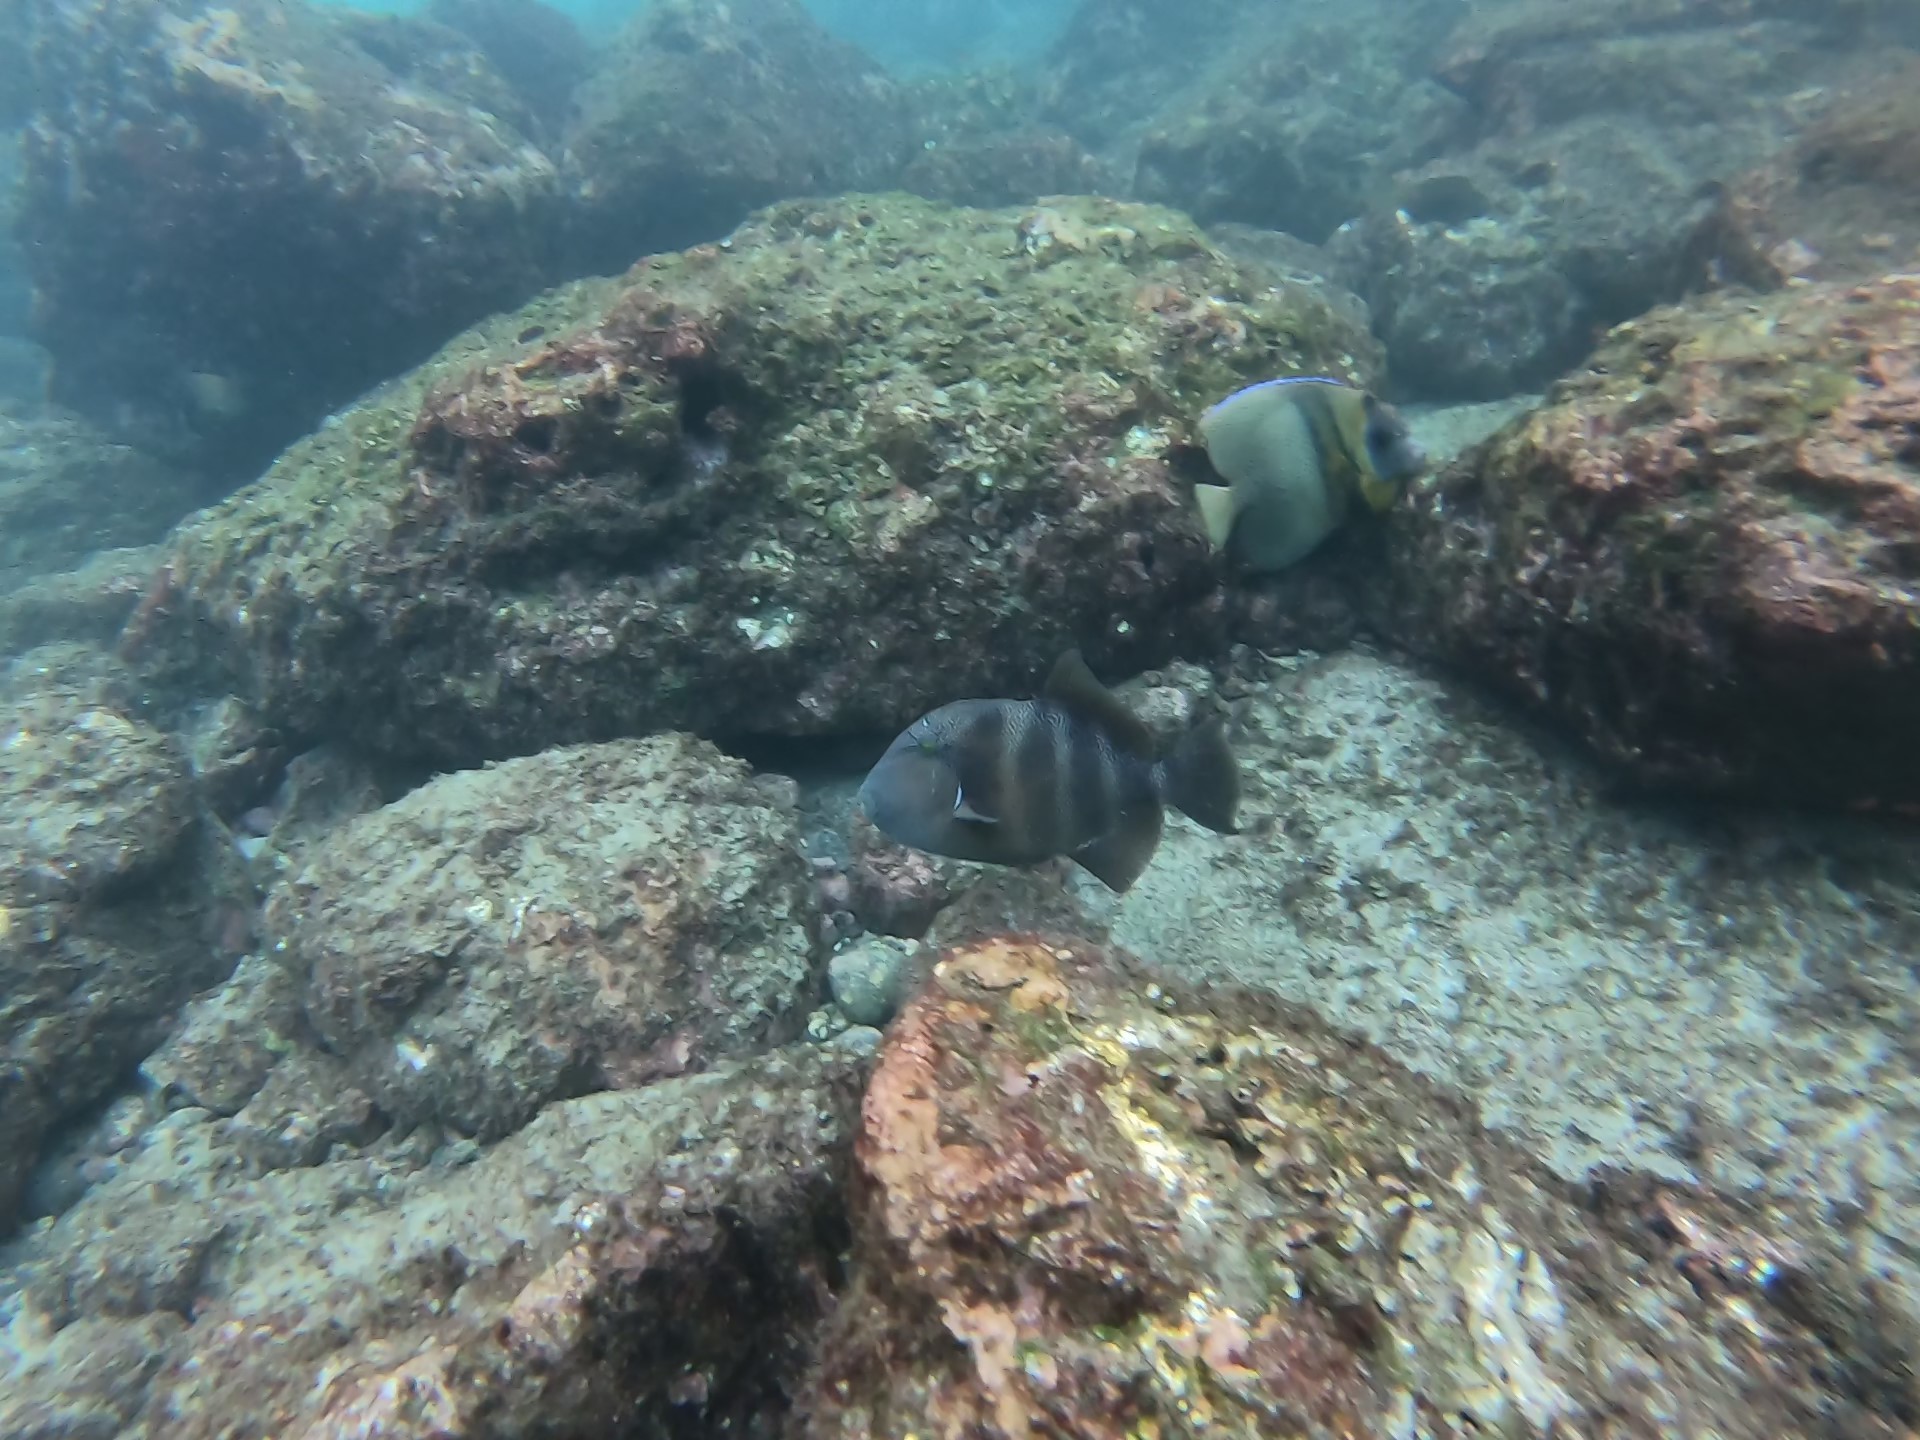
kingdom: Animalia
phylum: Chordata
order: Tetraodontiformes
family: Balistidae
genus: Pseudobalistes
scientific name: Pseudobalistes naufragium
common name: Blunthead triggerfish
